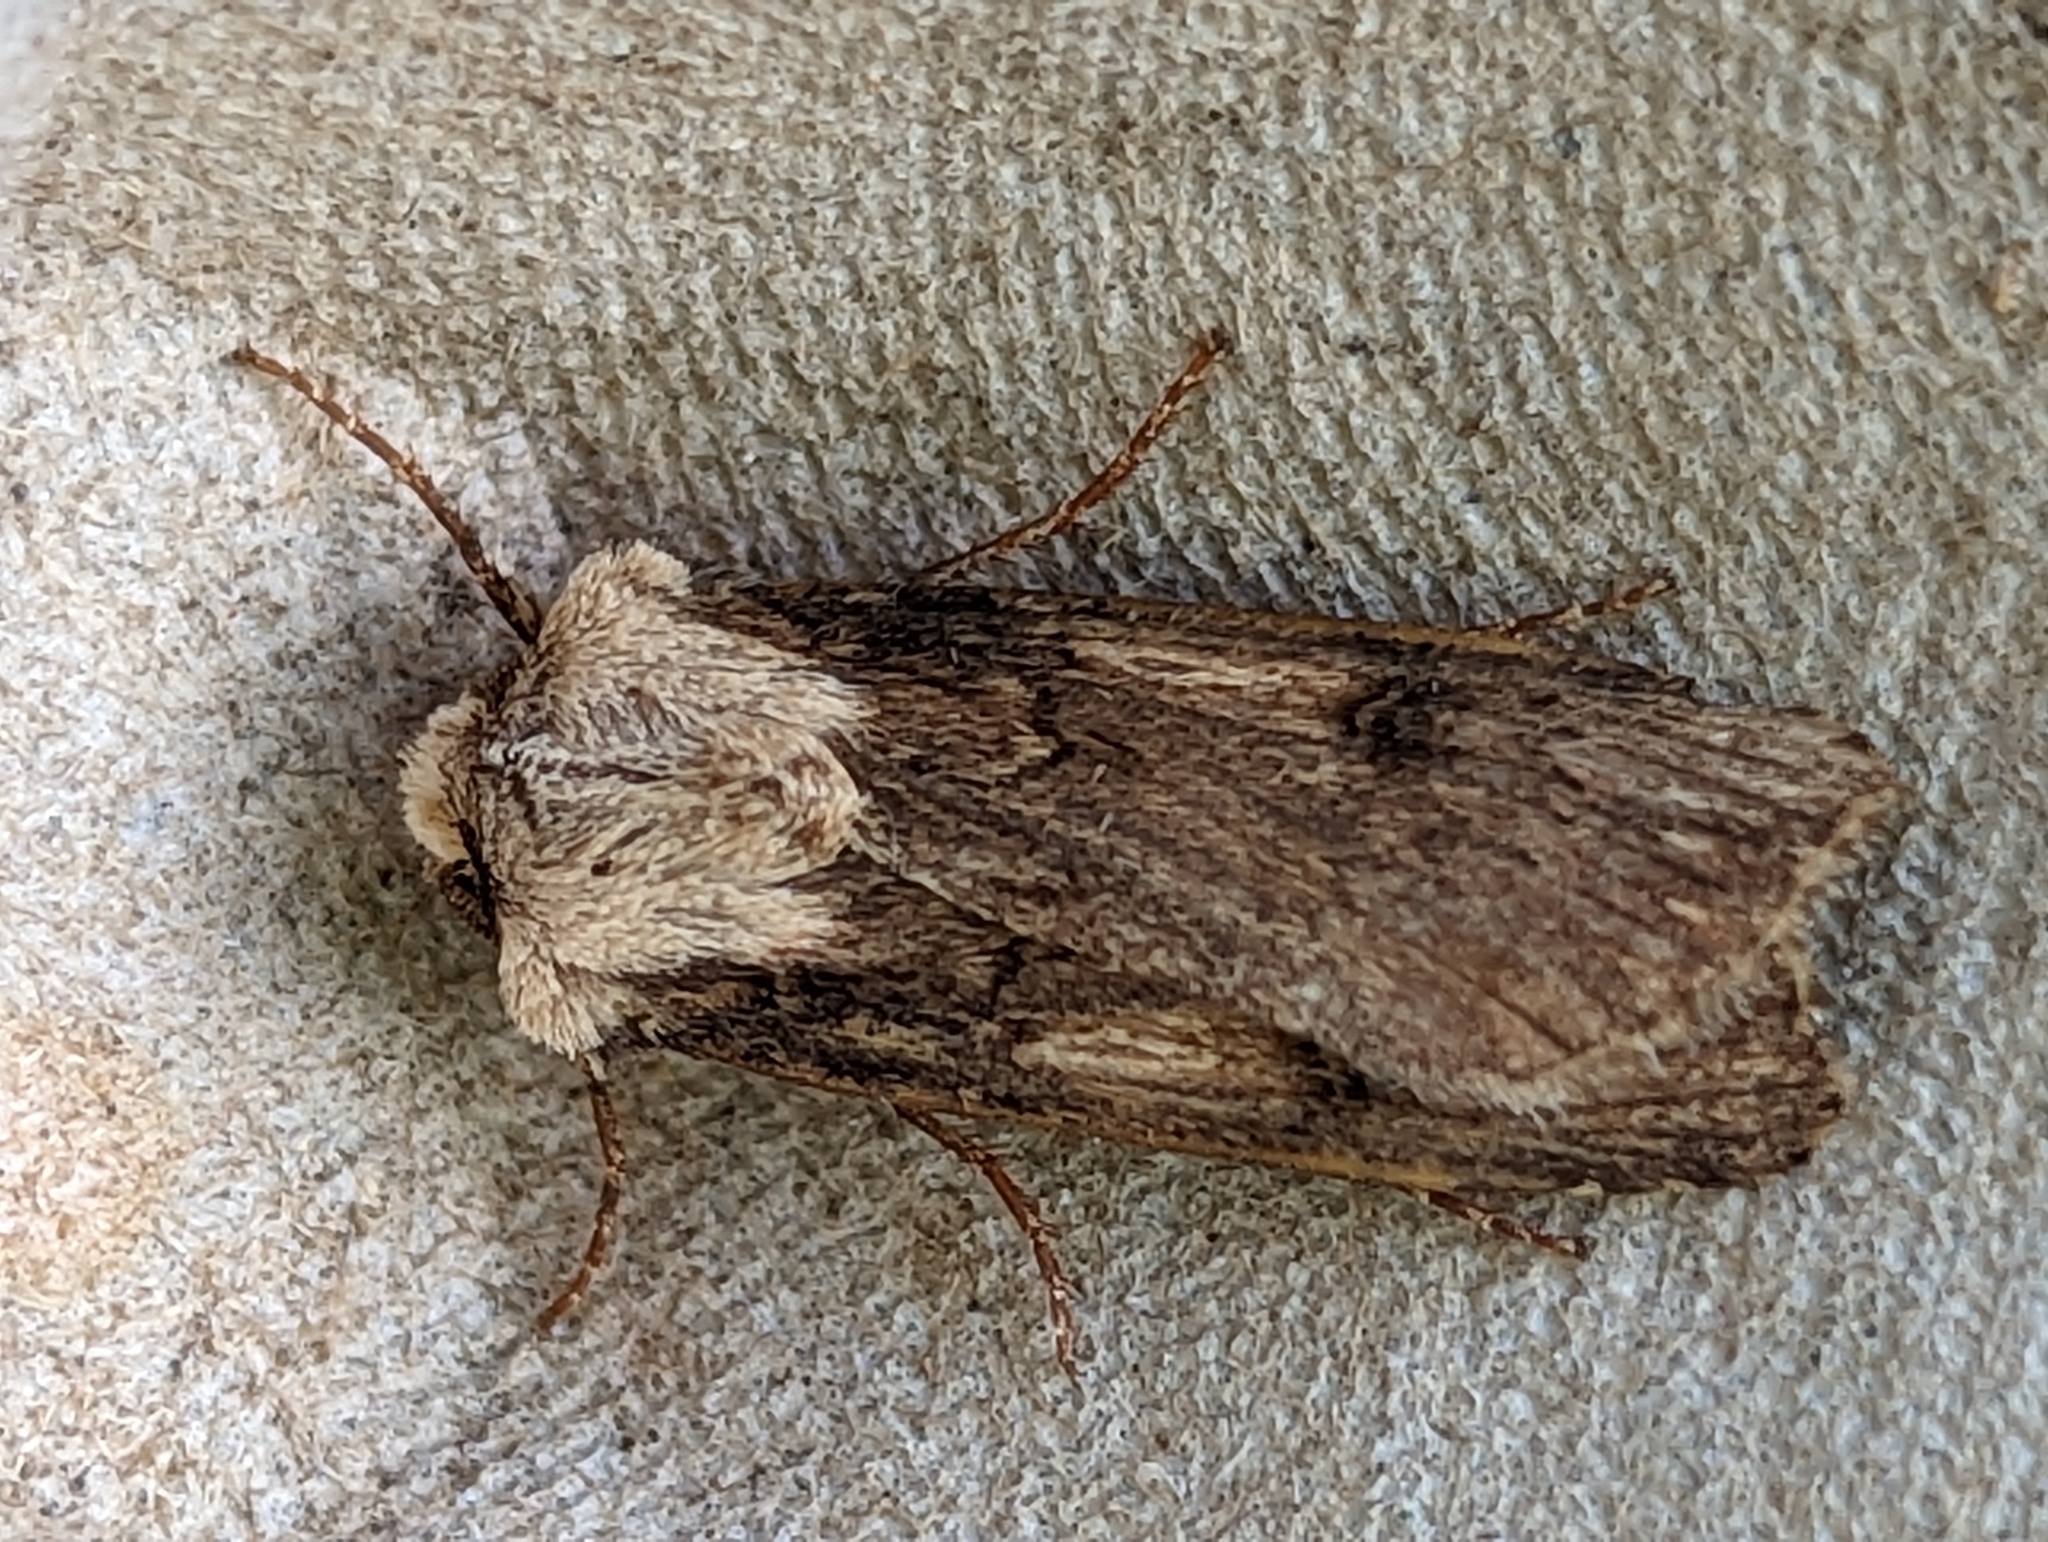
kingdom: Animalia
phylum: Arthropoda
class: Insecta
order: Lepidoptera
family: Noctuidae
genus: Agrotis
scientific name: Agrotis puta
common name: Shuttle-shaped dart
